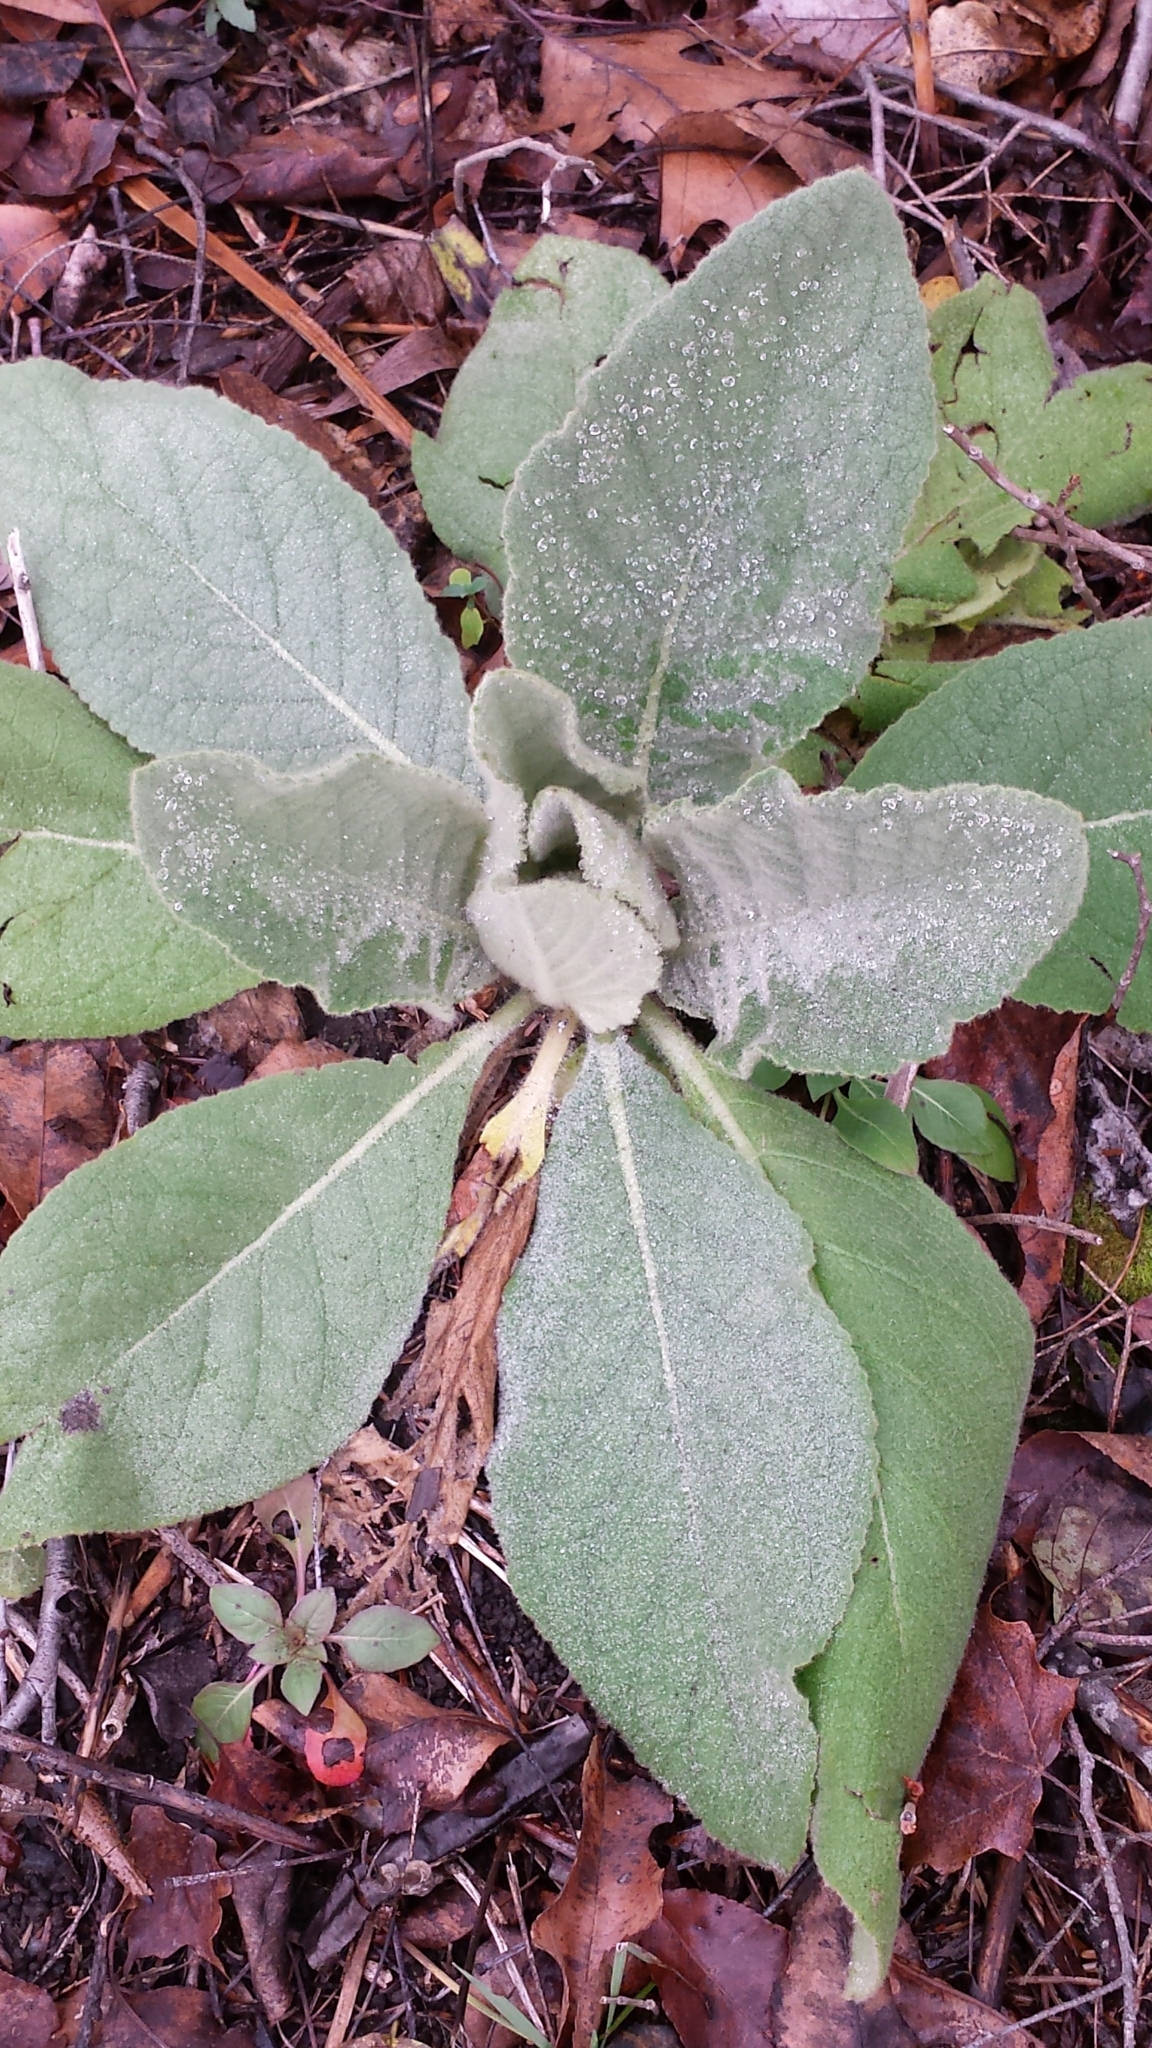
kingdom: Plantae
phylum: Tracheophyta
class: Magnoliopsida
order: Lamiales
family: Scrophulariaceae
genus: Verbascum
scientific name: Verbascum thapsus
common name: Common mullein
